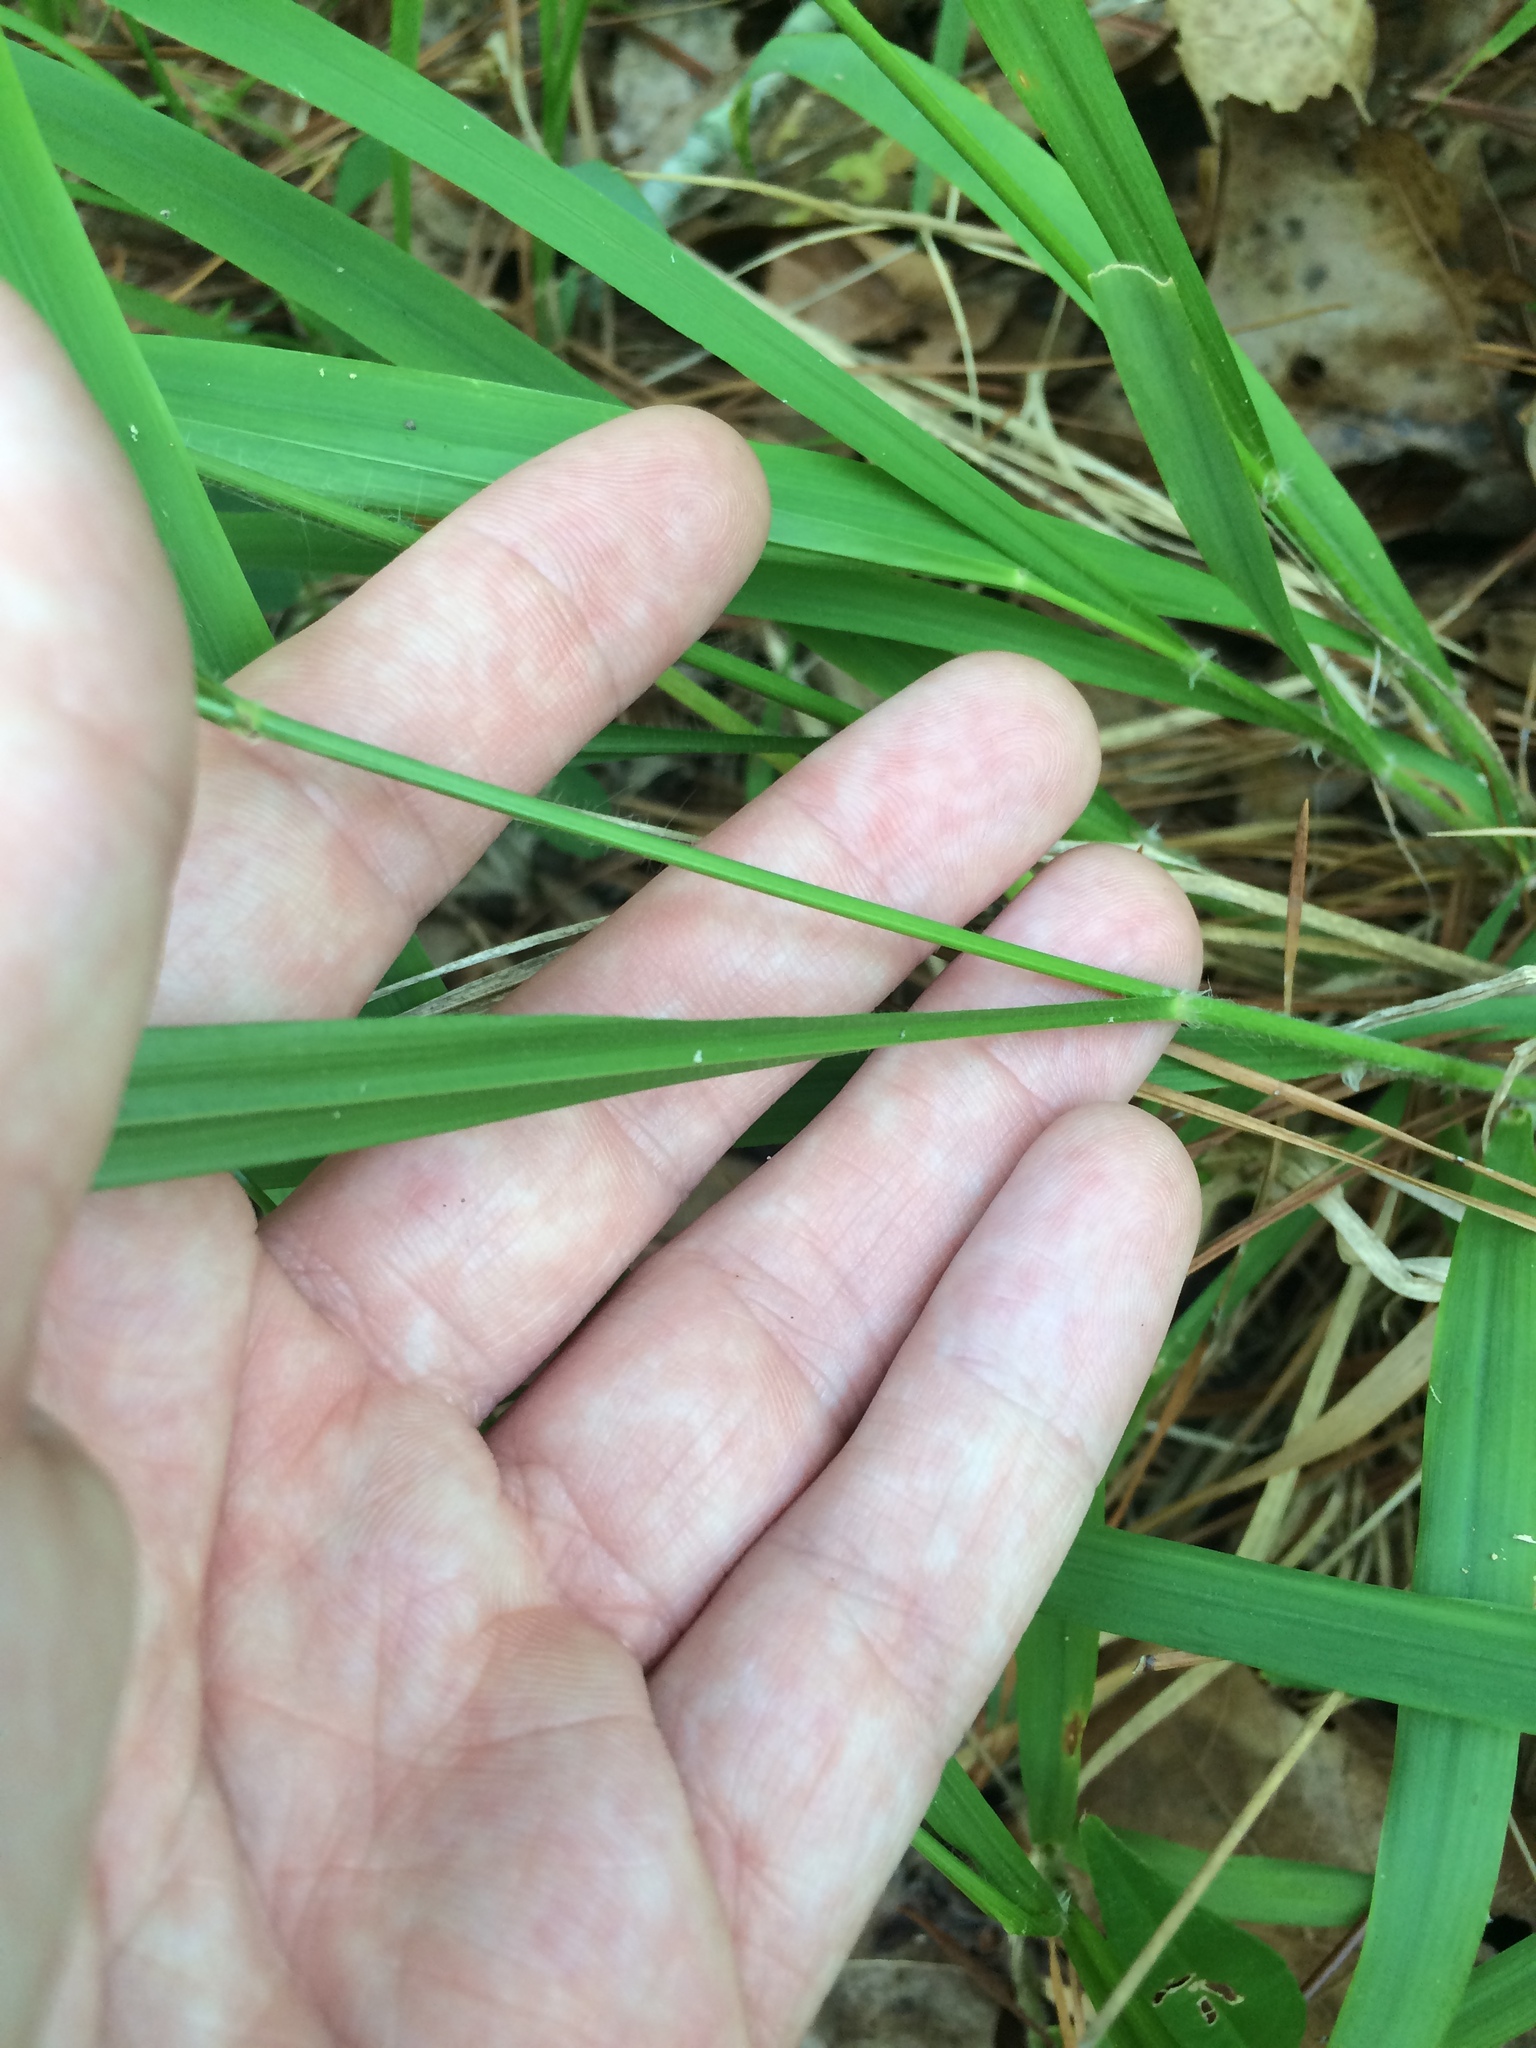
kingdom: Plantae
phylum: Tracheophyta
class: Liliopsida
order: Poales
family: Poaceae
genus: Chasmanthium
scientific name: Chasmanthium laxum
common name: Slender chasmanthium
